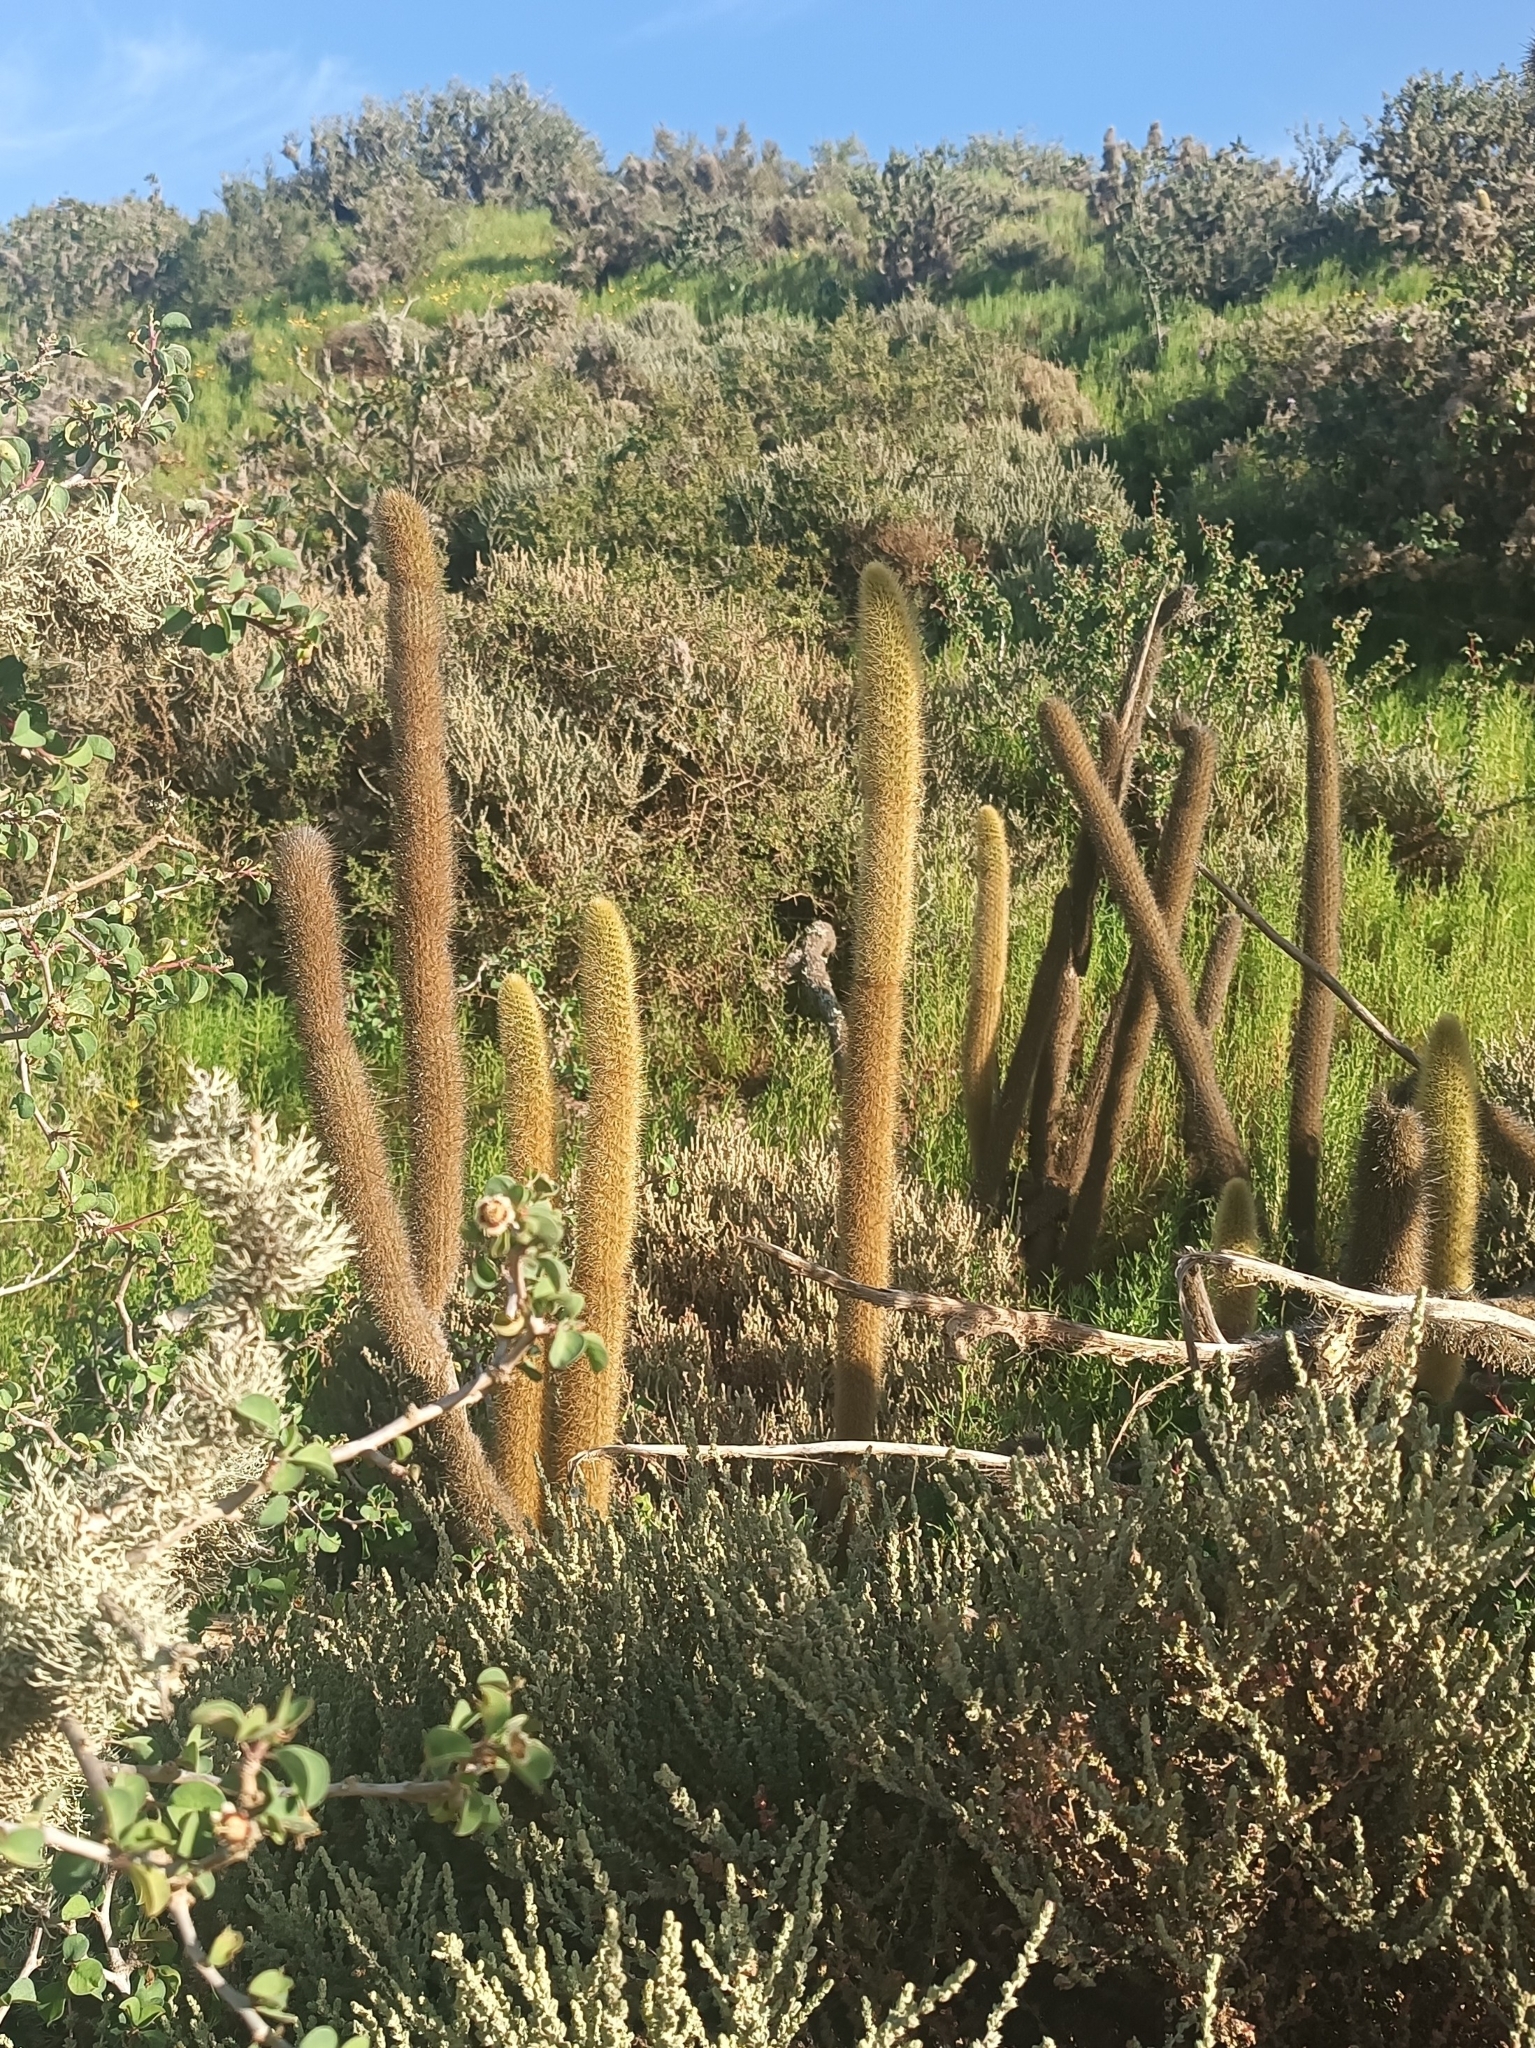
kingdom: Plantae
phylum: Tracheophyta
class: Magnoliopsida
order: Caryophyllales
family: Cactaceae
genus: Bergerocactus
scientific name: Bergerocactus emoryi
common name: Golden snakecactus
